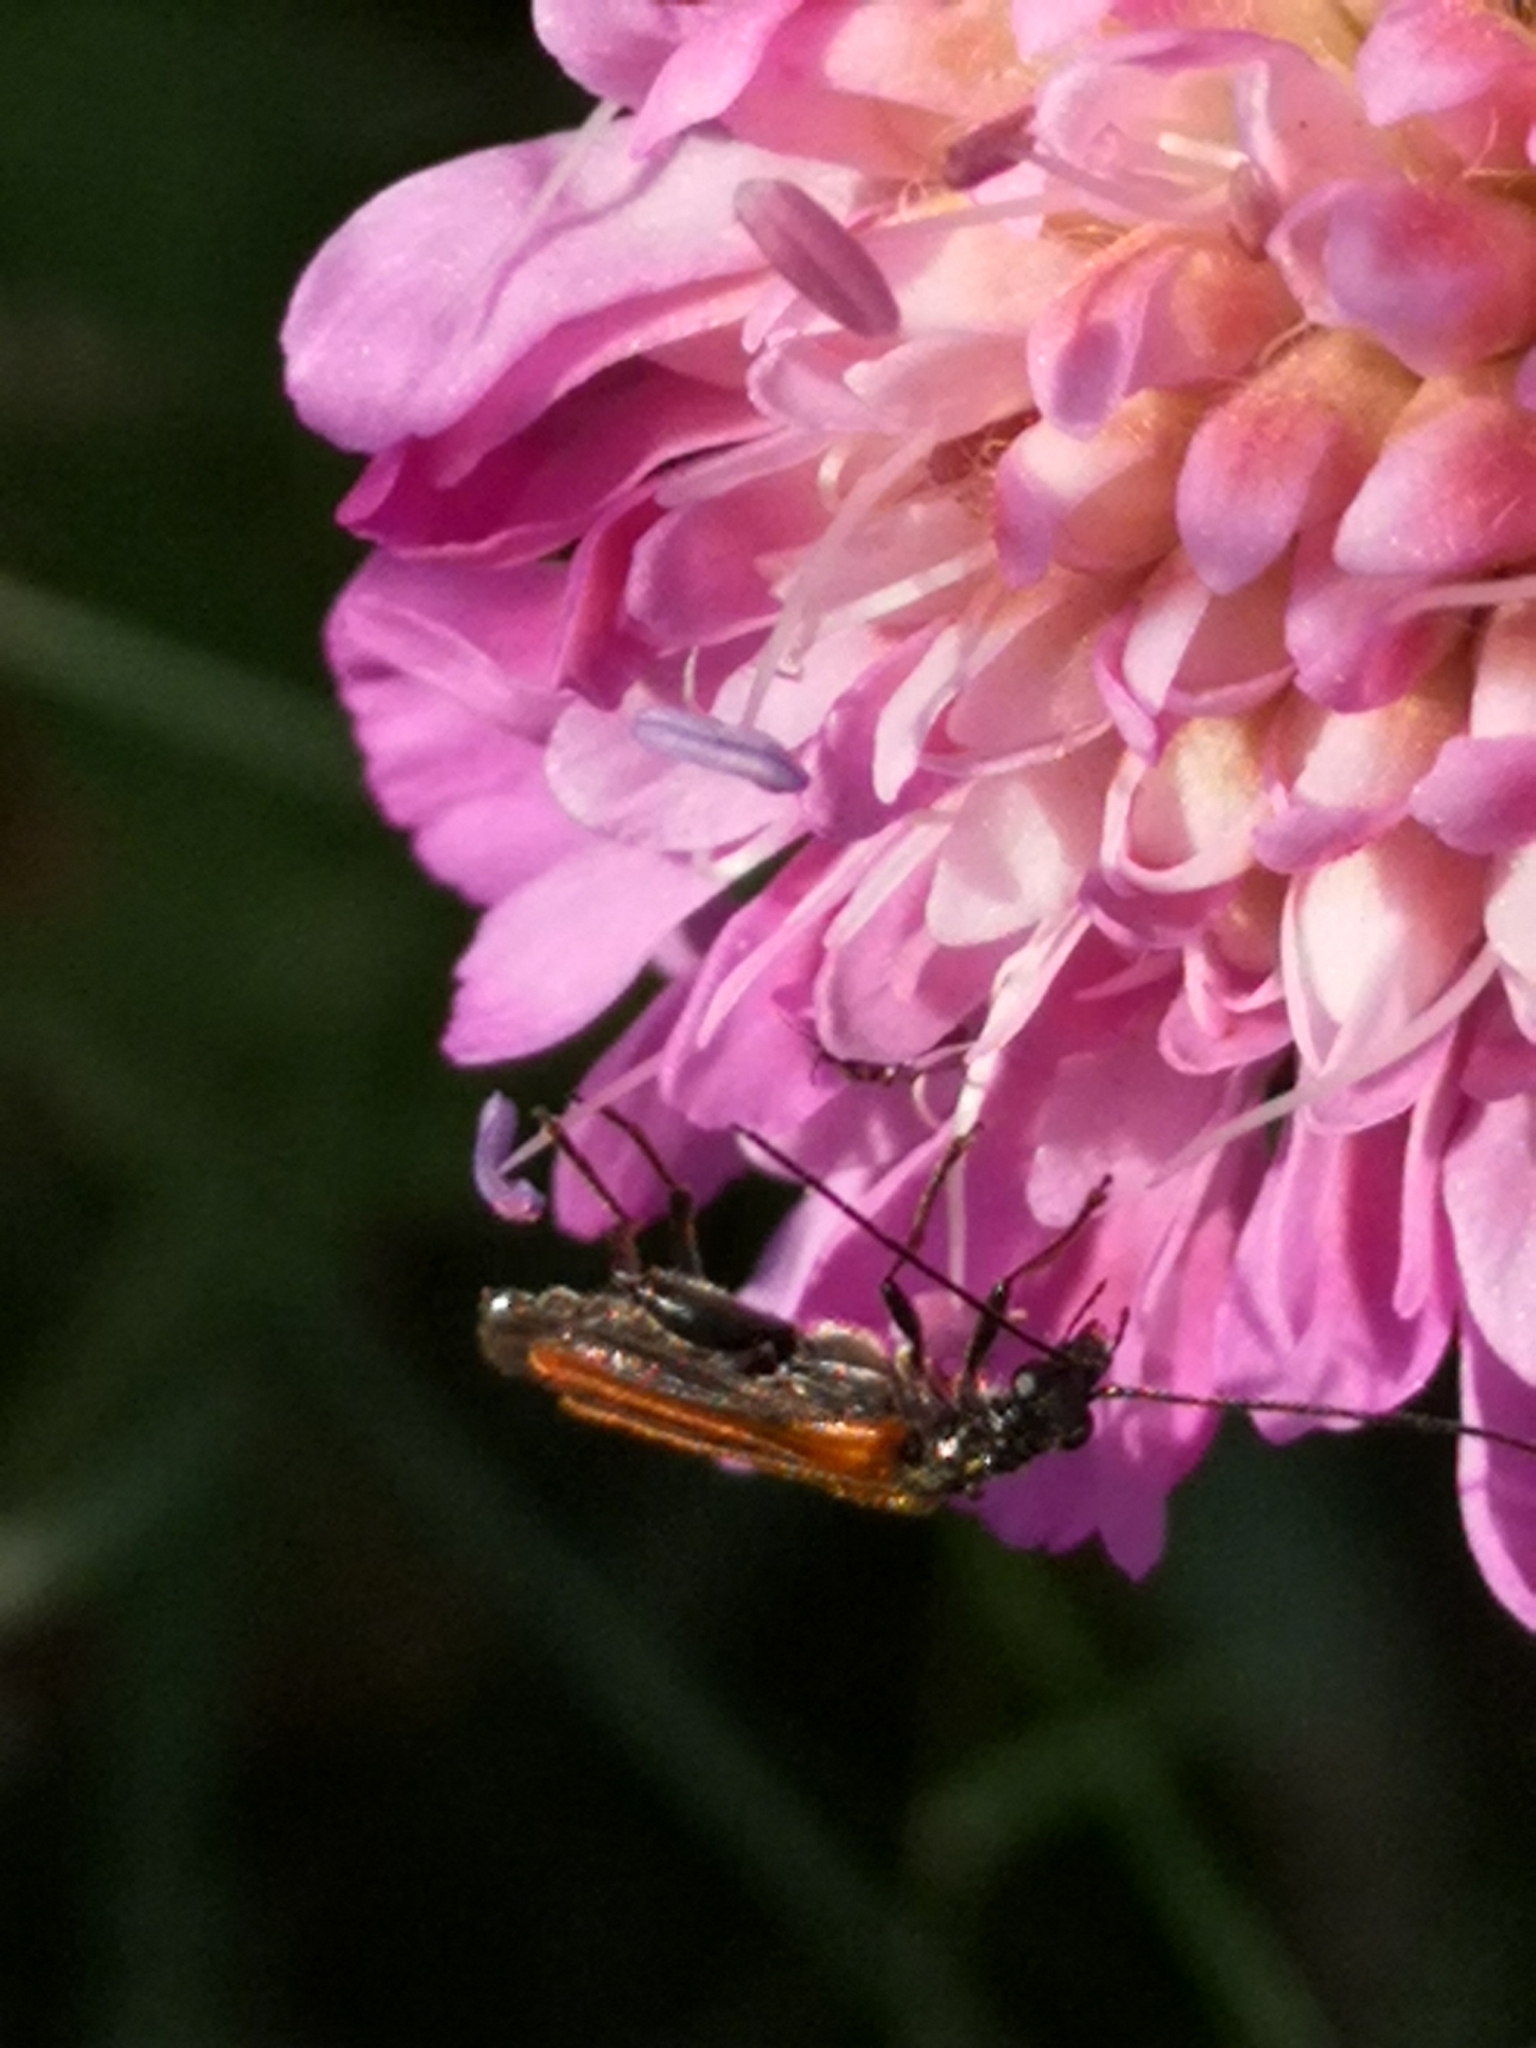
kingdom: Animalia
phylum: Arthropoda
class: Insecta
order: Coleoptera
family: Oedemeridae
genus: Oedemera
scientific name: Oedemera femorata
